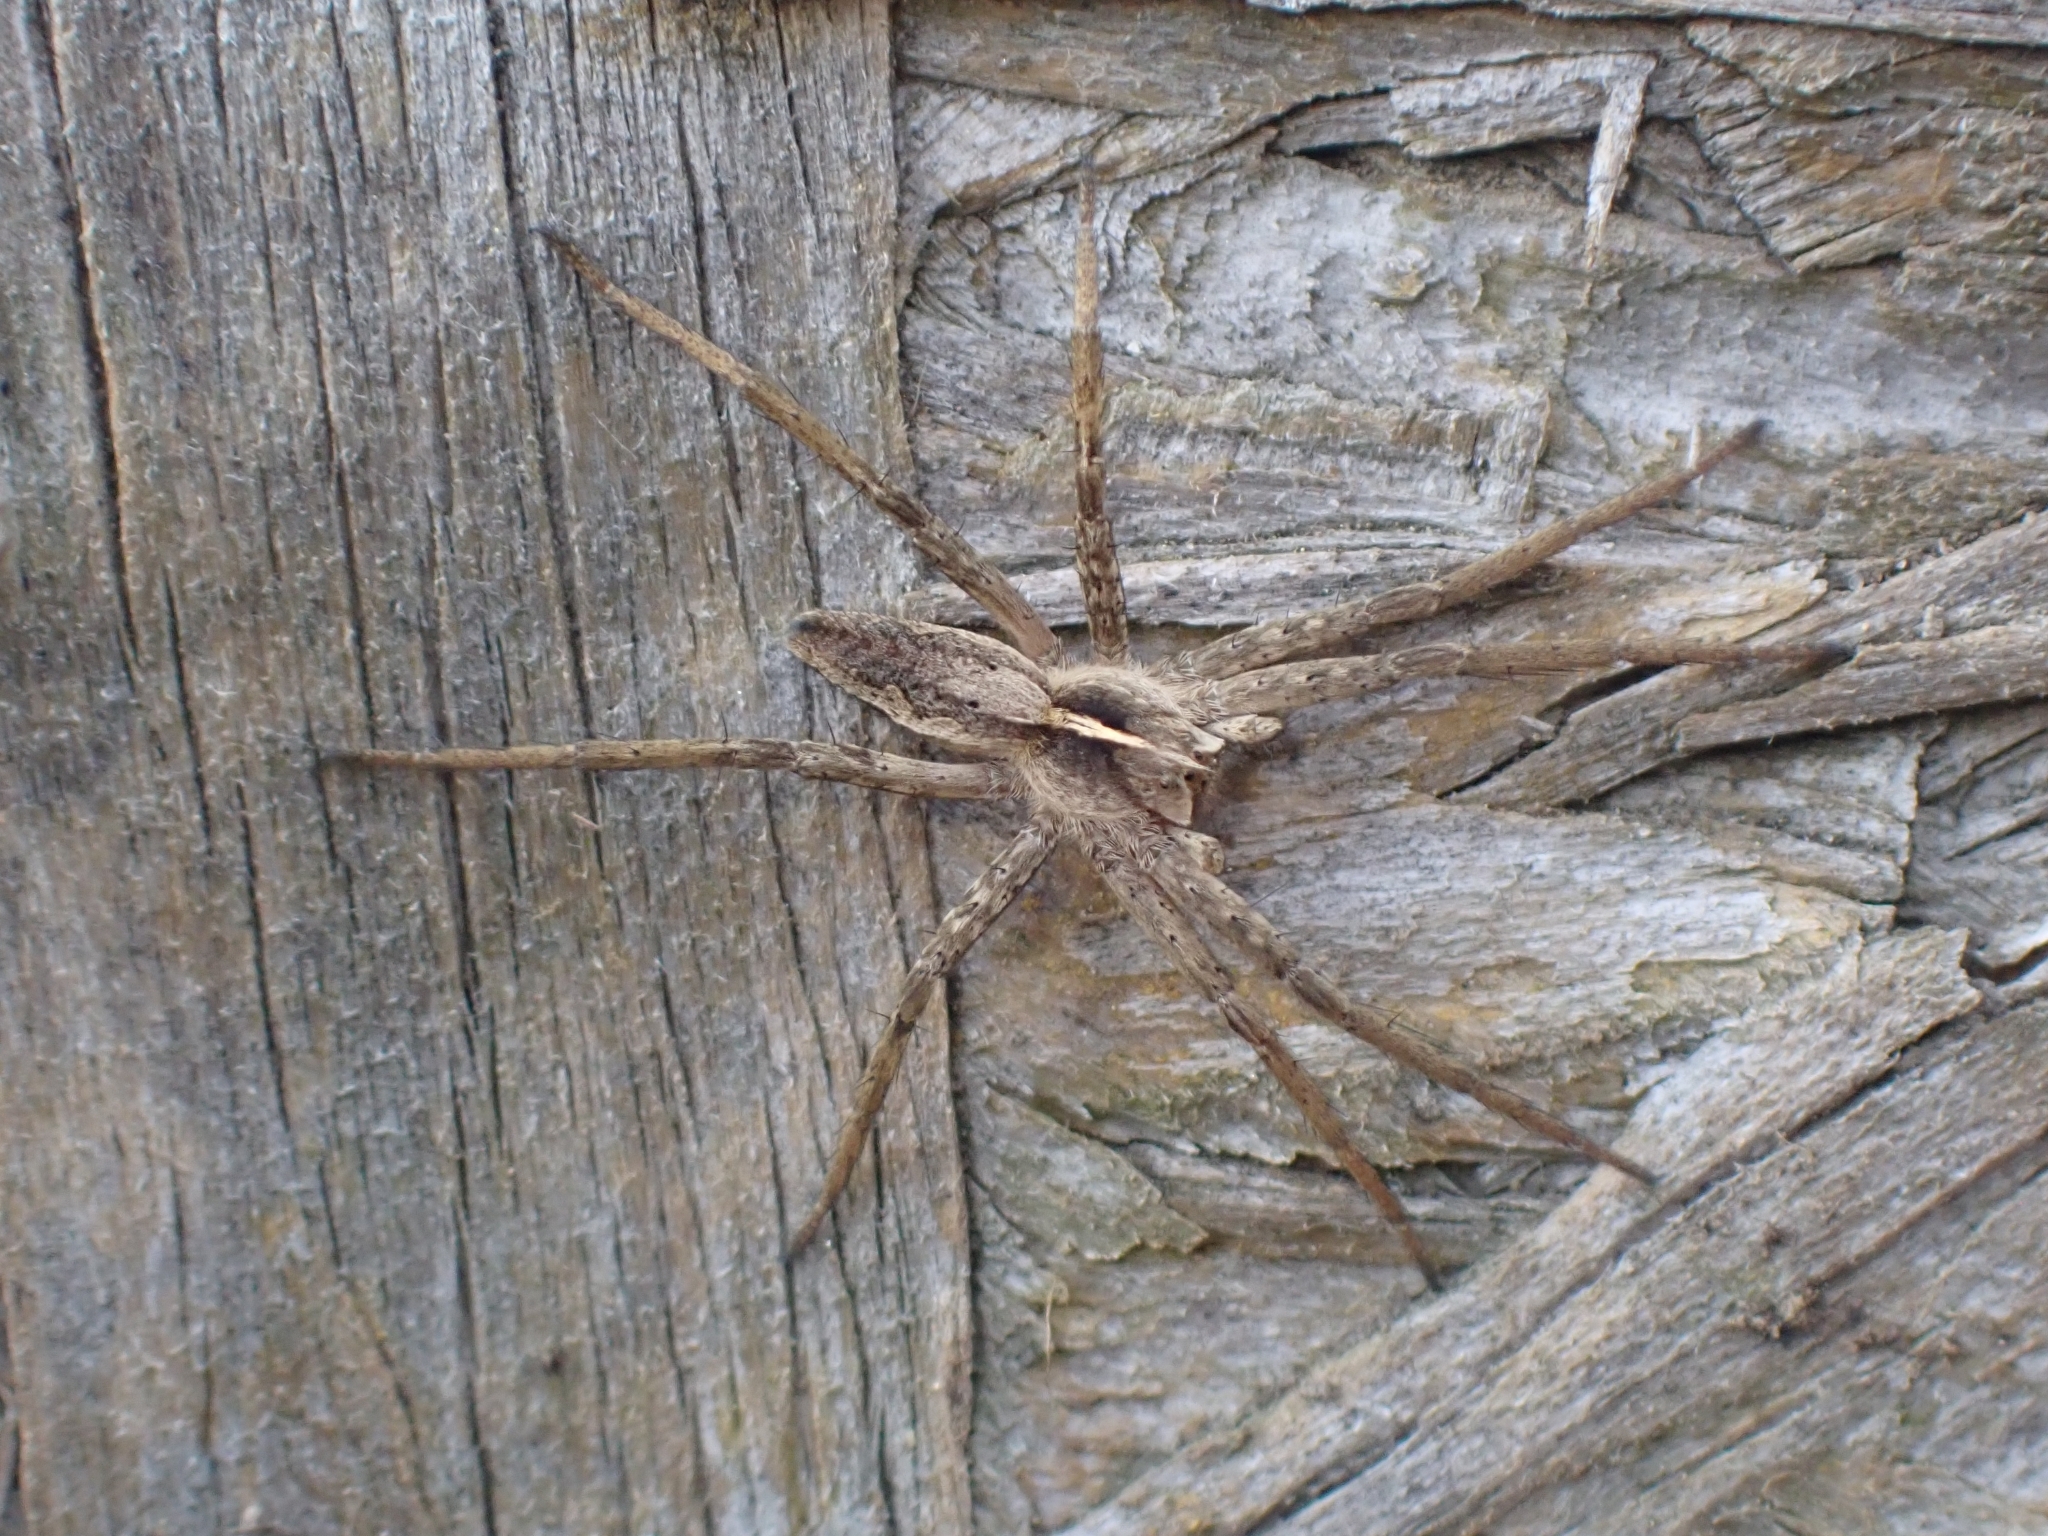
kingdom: Animalia
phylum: Arthropoda
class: Arachnida
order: Araneae
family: Pisauridae
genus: Pisaura
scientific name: Pisaura mirabilis
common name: Tent spider
